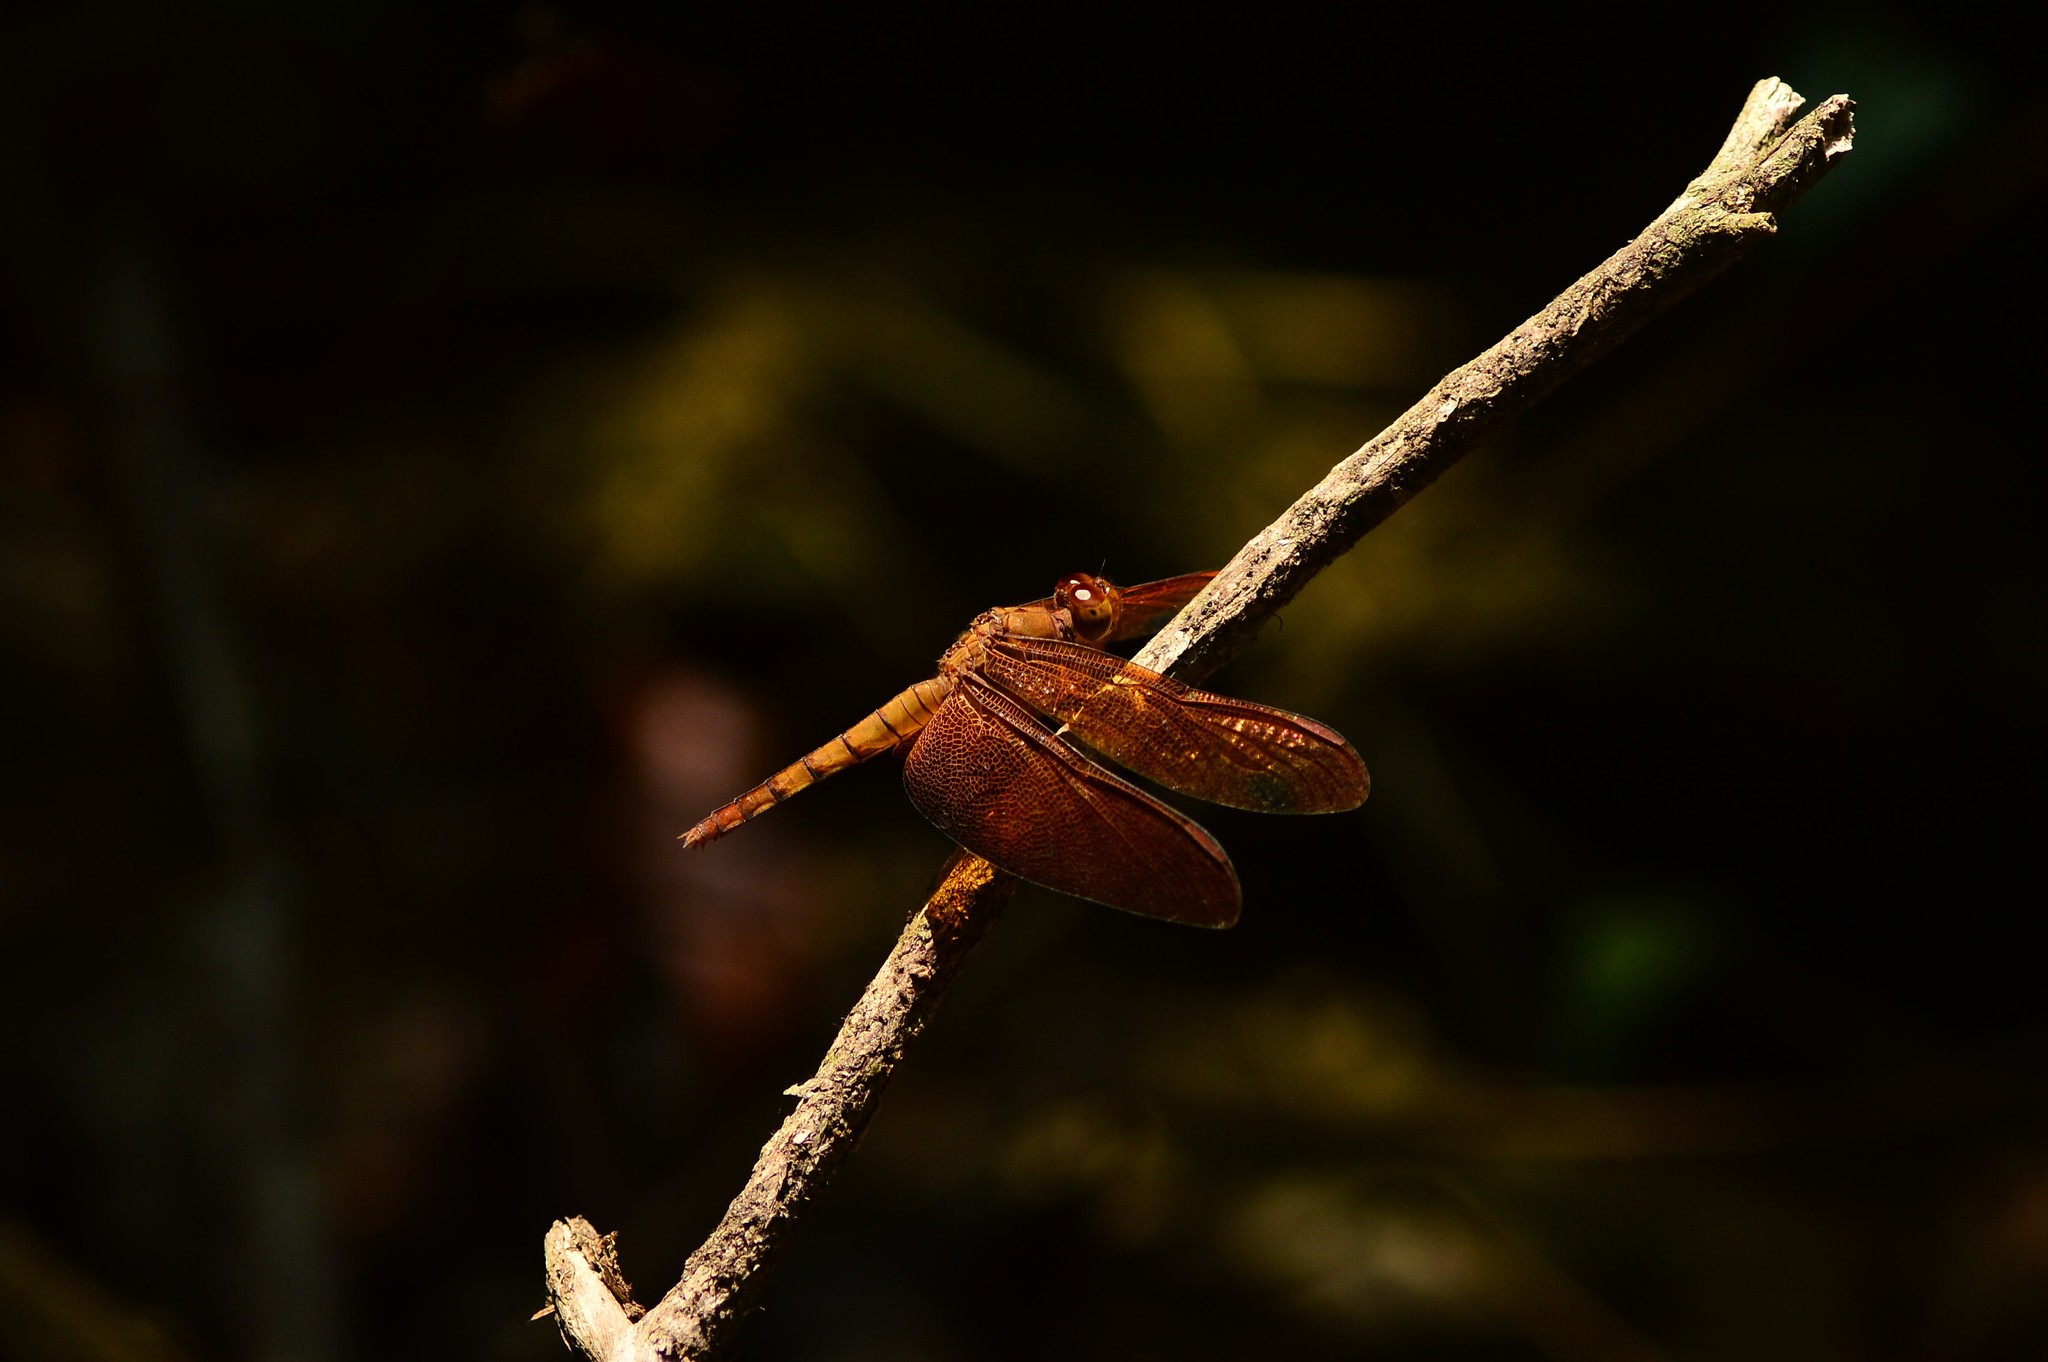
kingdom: Animalia
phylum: Arthropoda
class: Insecta
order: Odonata
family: Libellulidae
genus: Neurothemis
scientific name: Neurothemis fulvia
